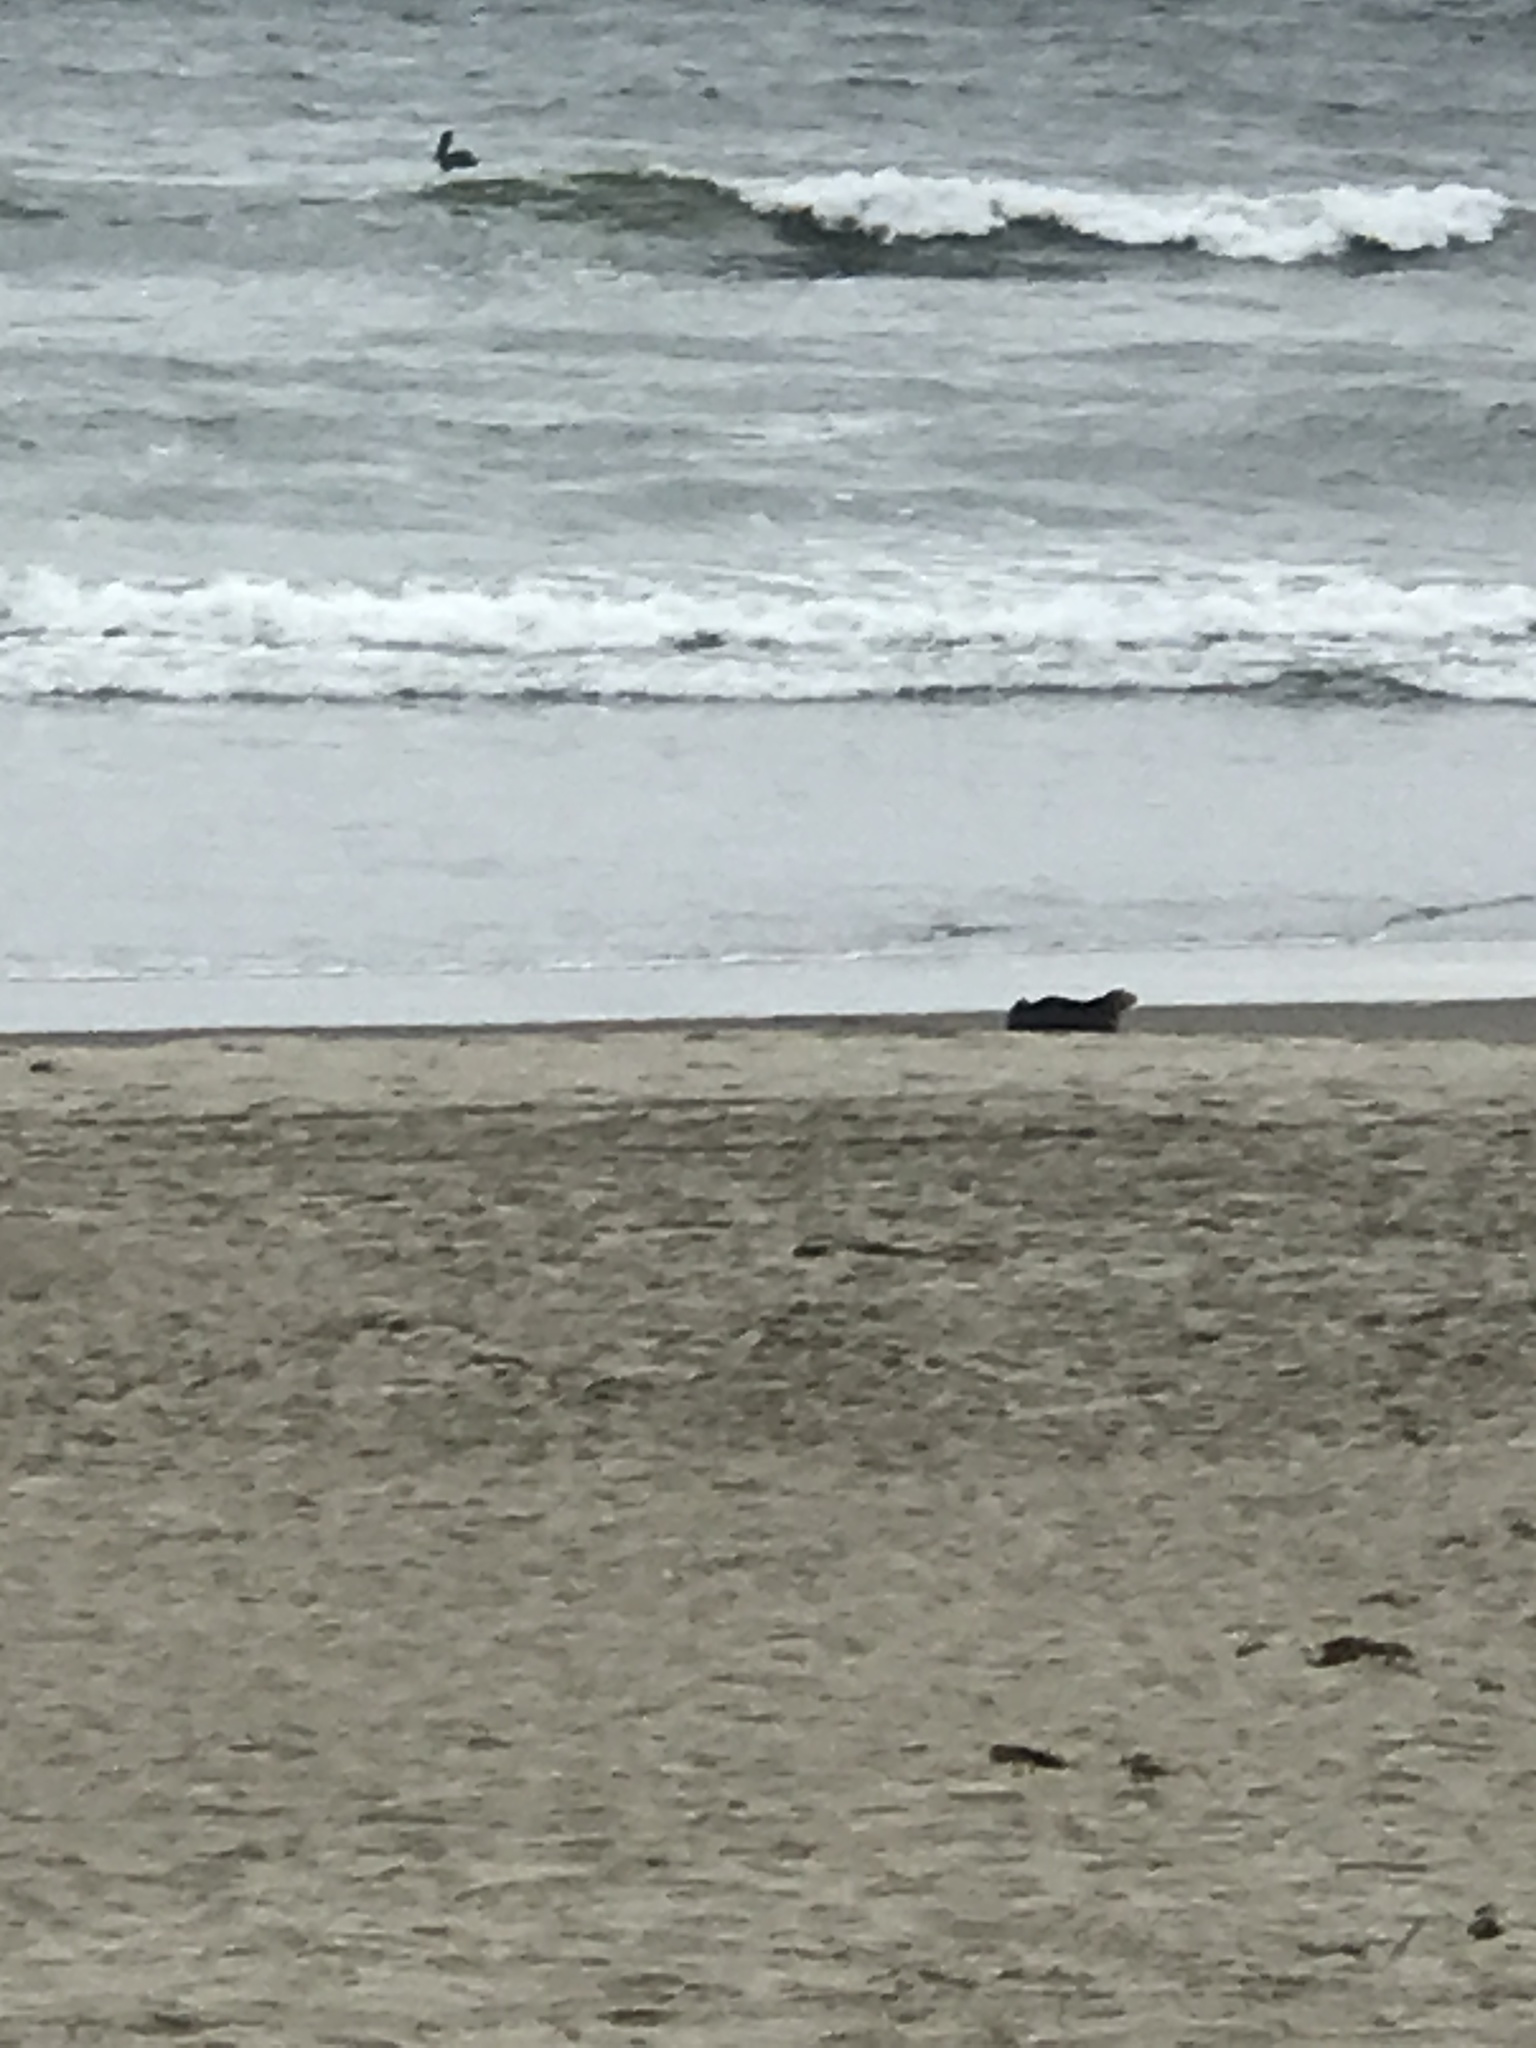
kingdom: Animalia
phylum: Chordata
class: Mammalia
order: Carnivora
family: Mustelidae
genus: Enhydra
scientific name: Enhydra lutris
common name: Sea otter
